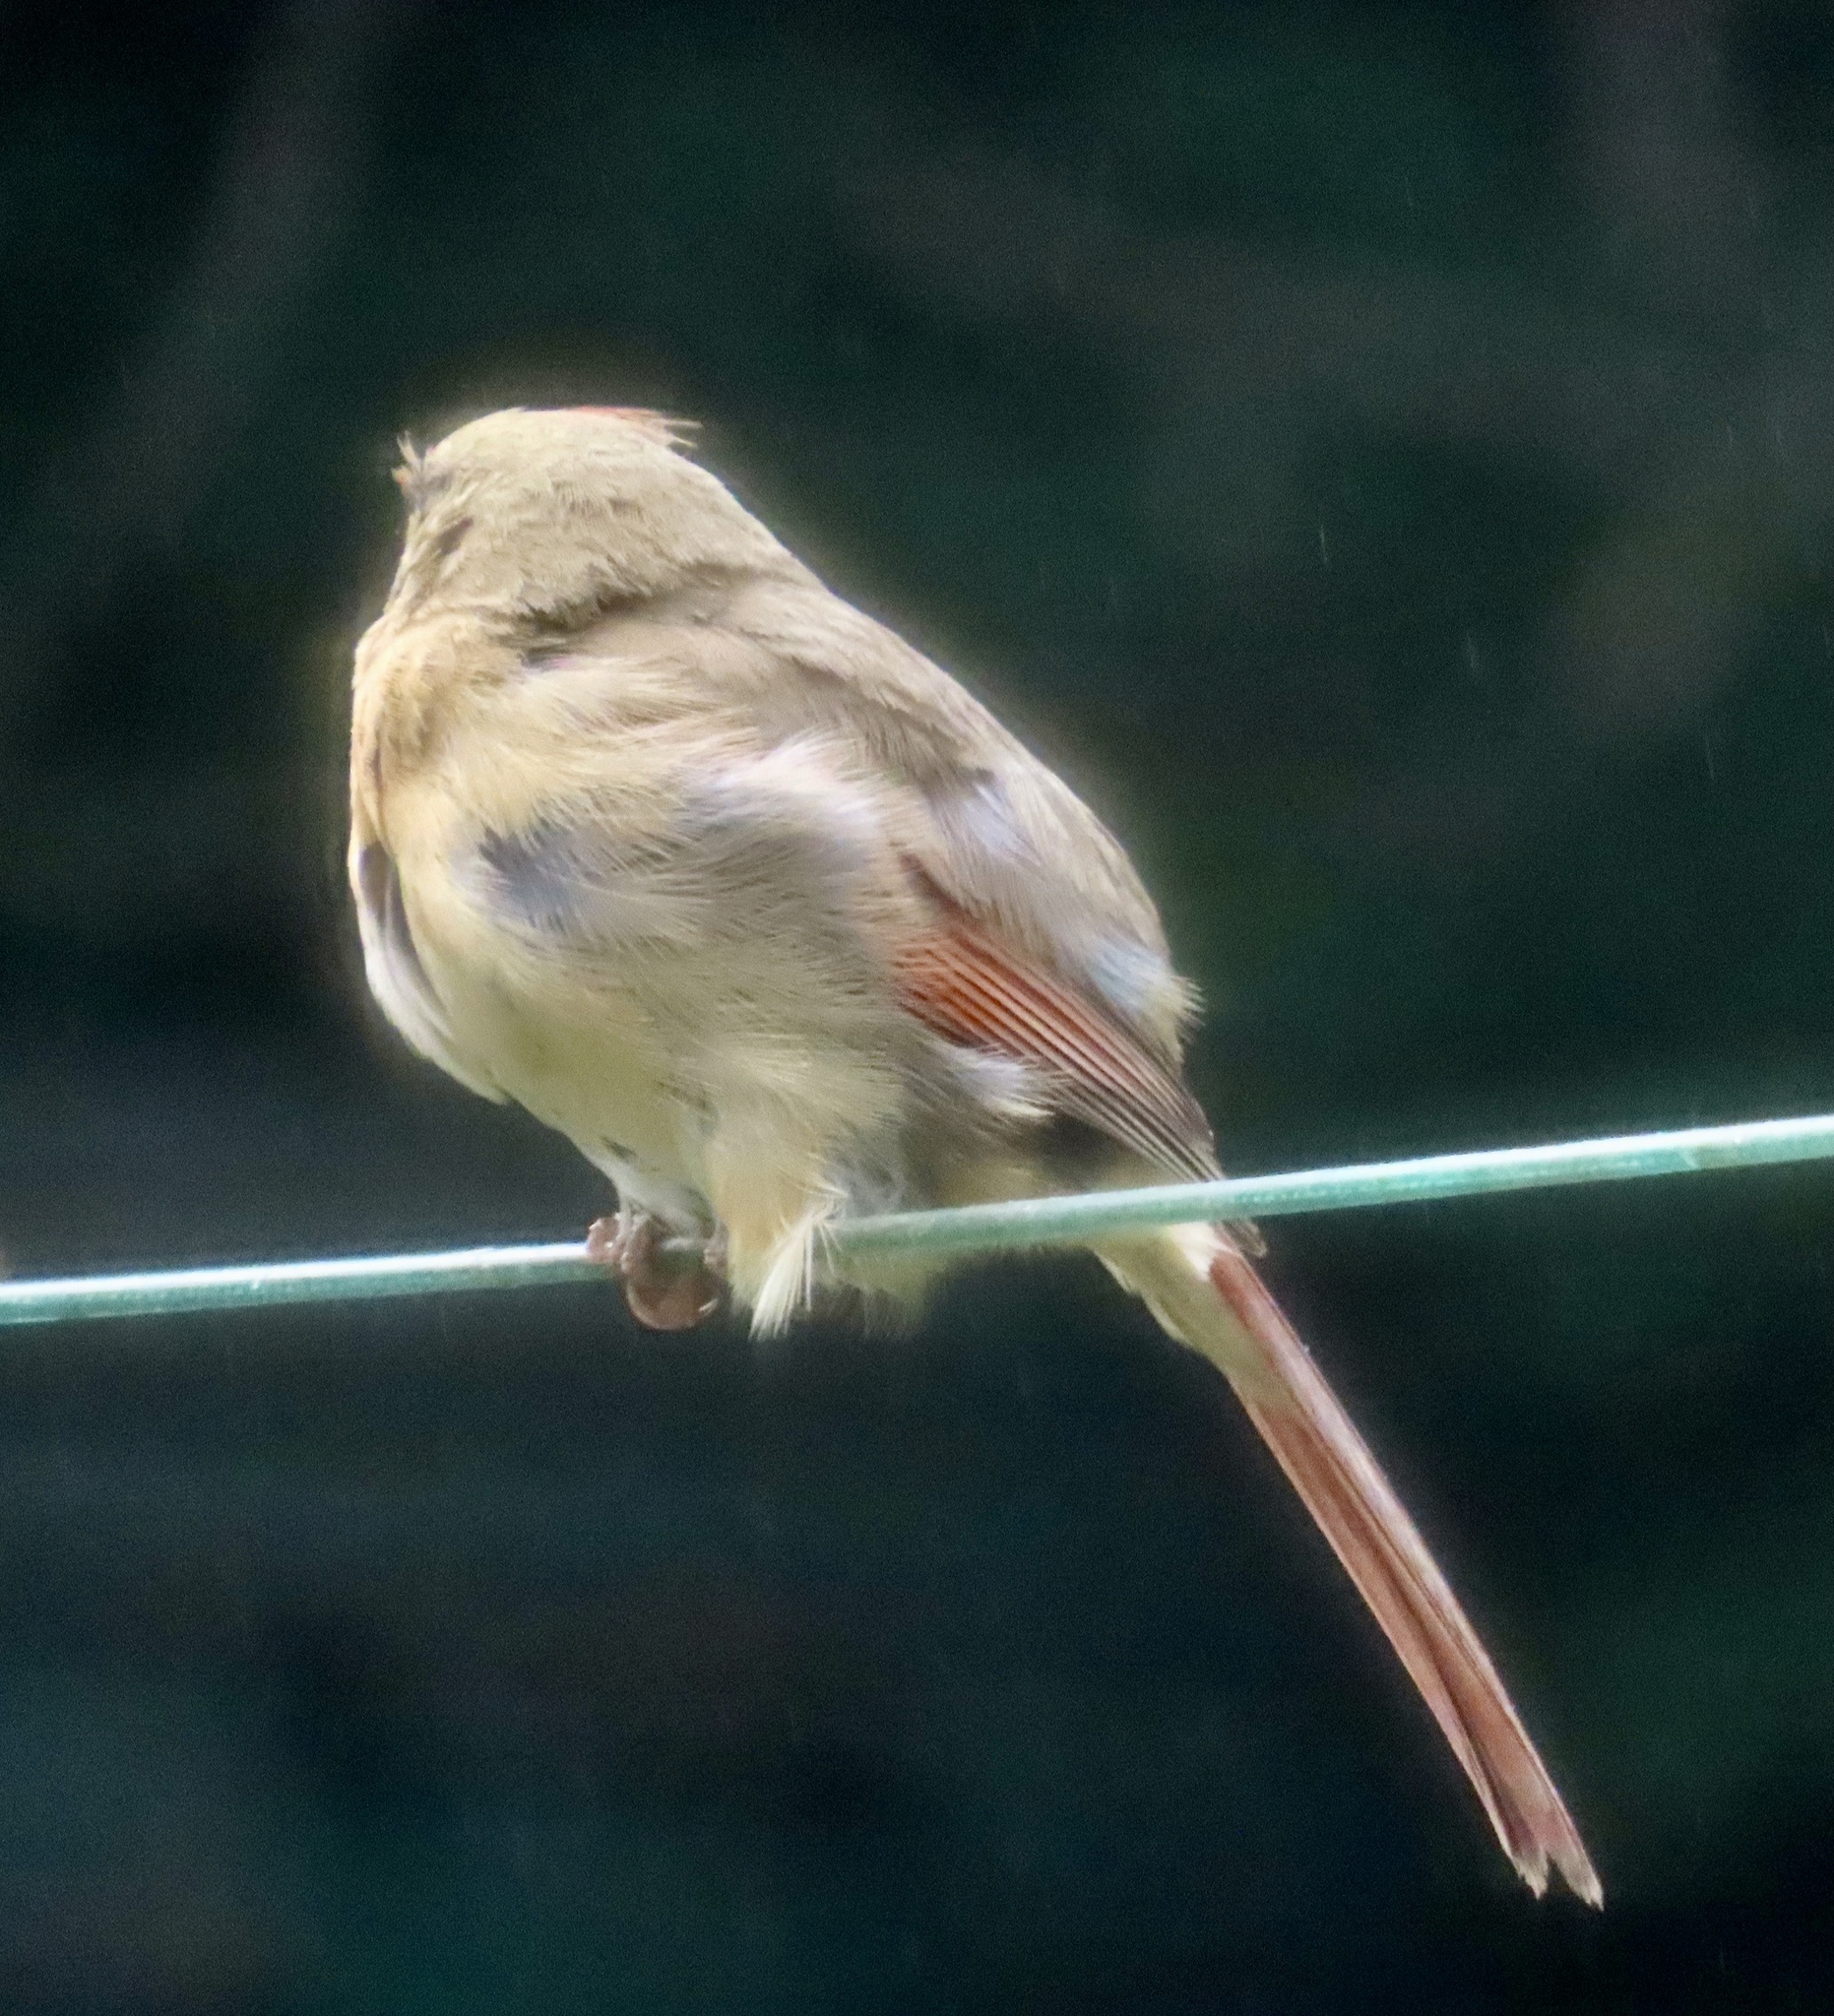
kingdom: Animalia
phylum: Chordata
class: Aves
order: Passeriformes
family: Cardinalidae
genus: Cardinalis
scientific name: Cardinalis cardinalis
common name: Northern cardinal
